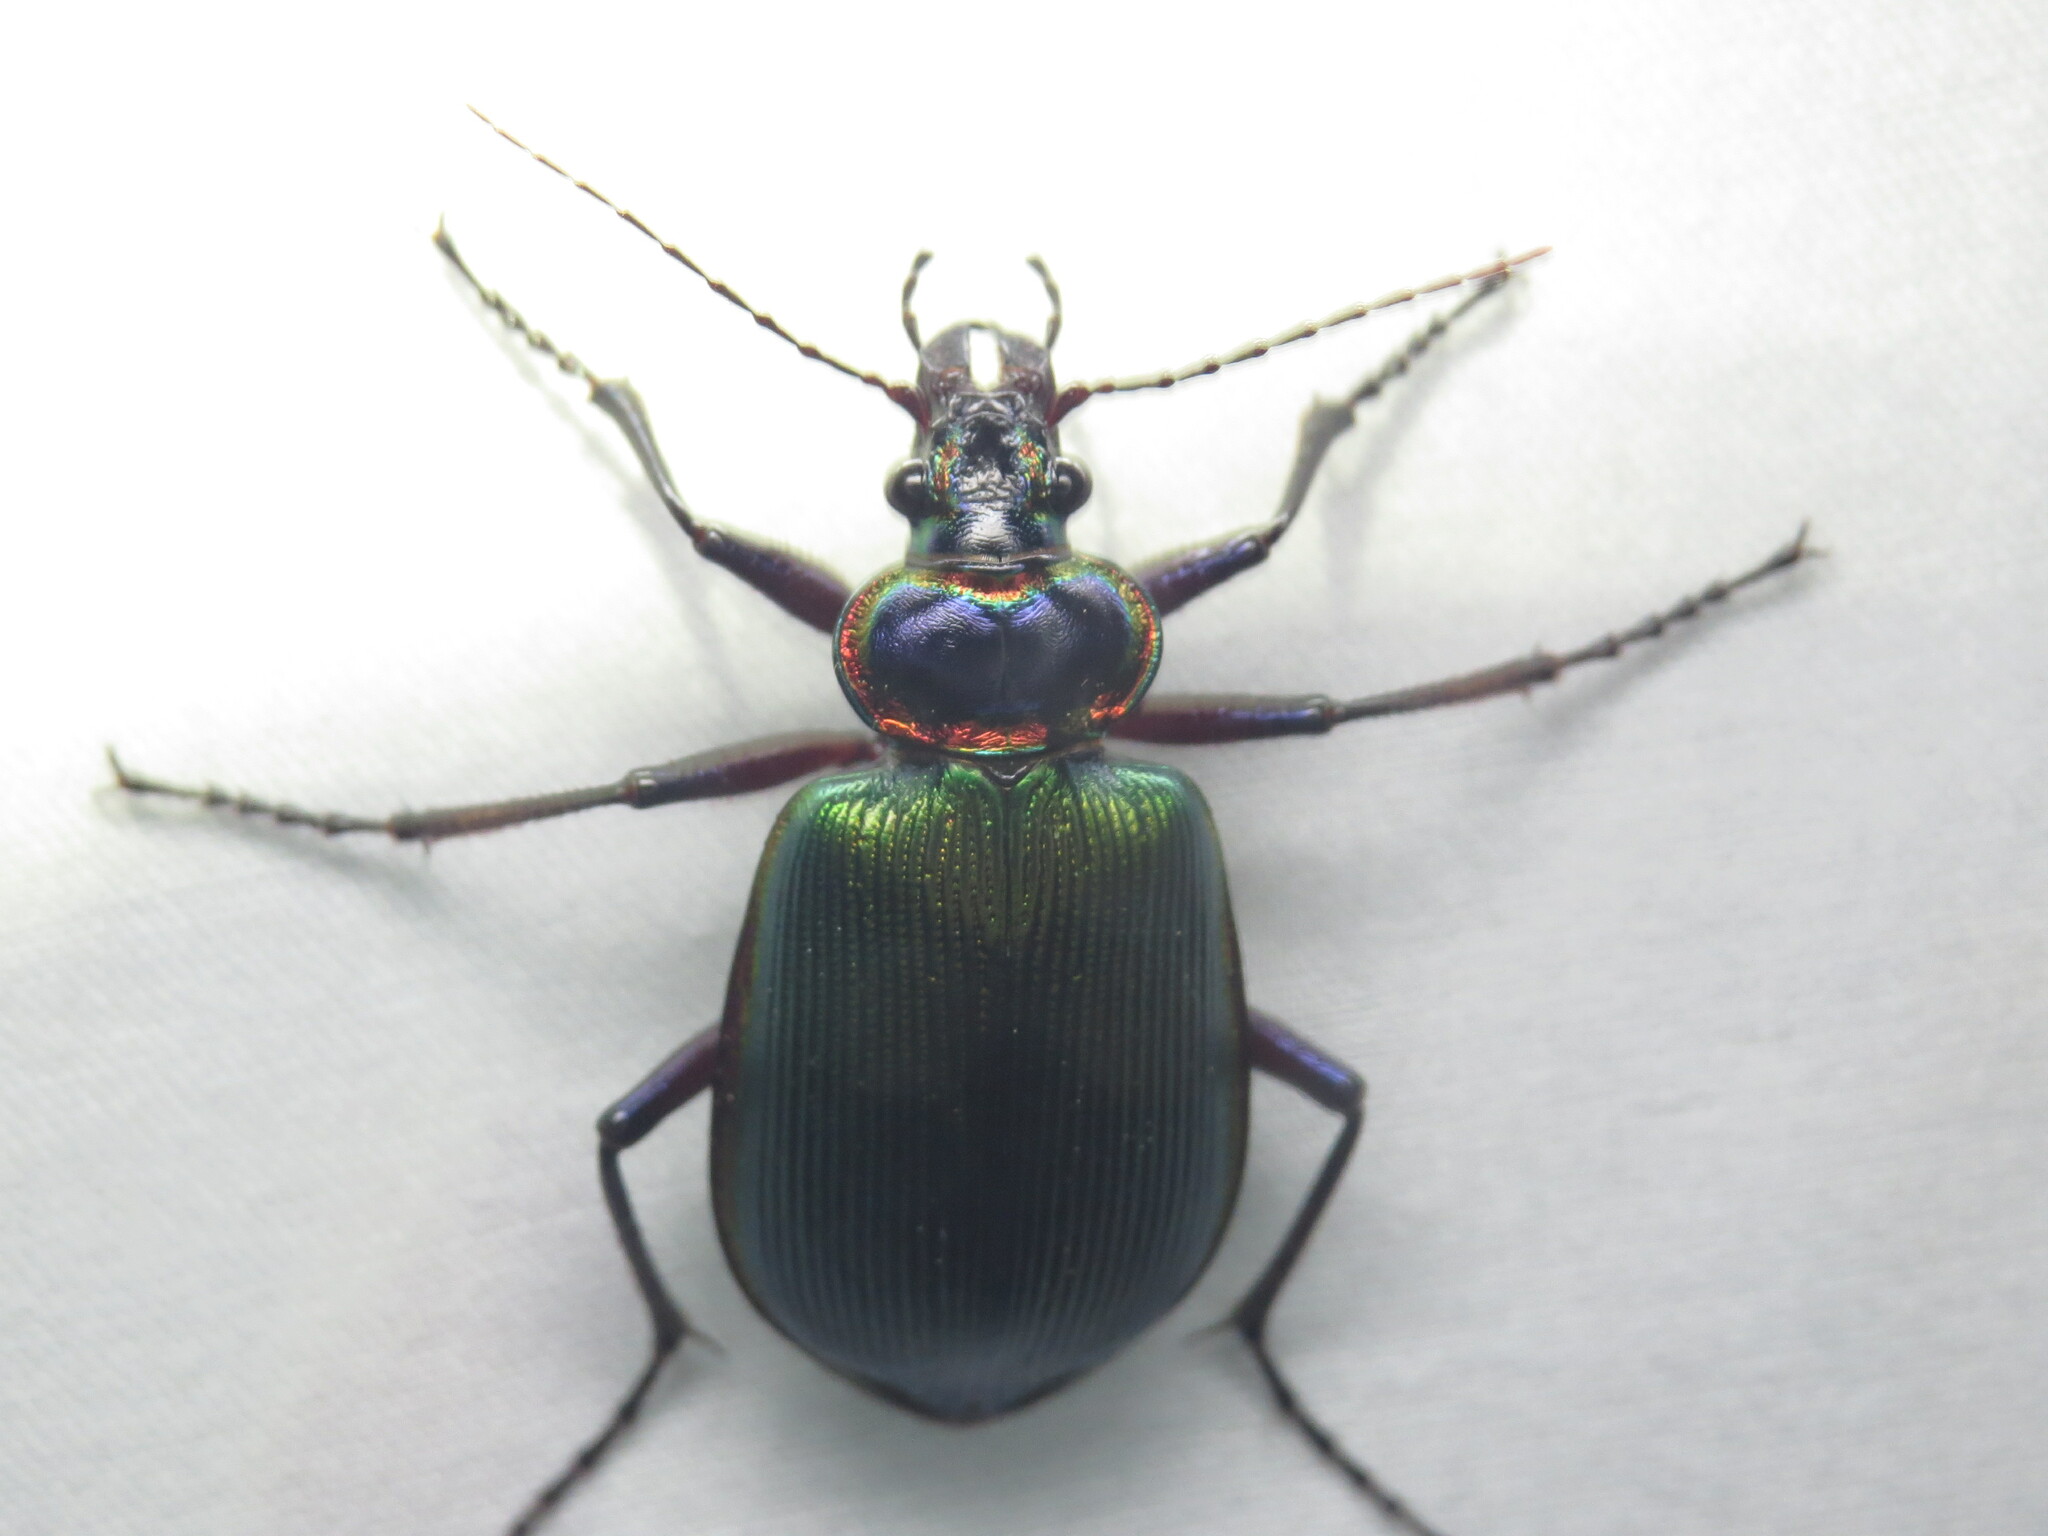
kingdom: Animalia
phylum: Arthropoda
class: Insecta
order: Coleoptera
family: Carabidae
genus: Calosoma
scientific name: Calosoma scrutator
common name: Fiery searcher beetle
